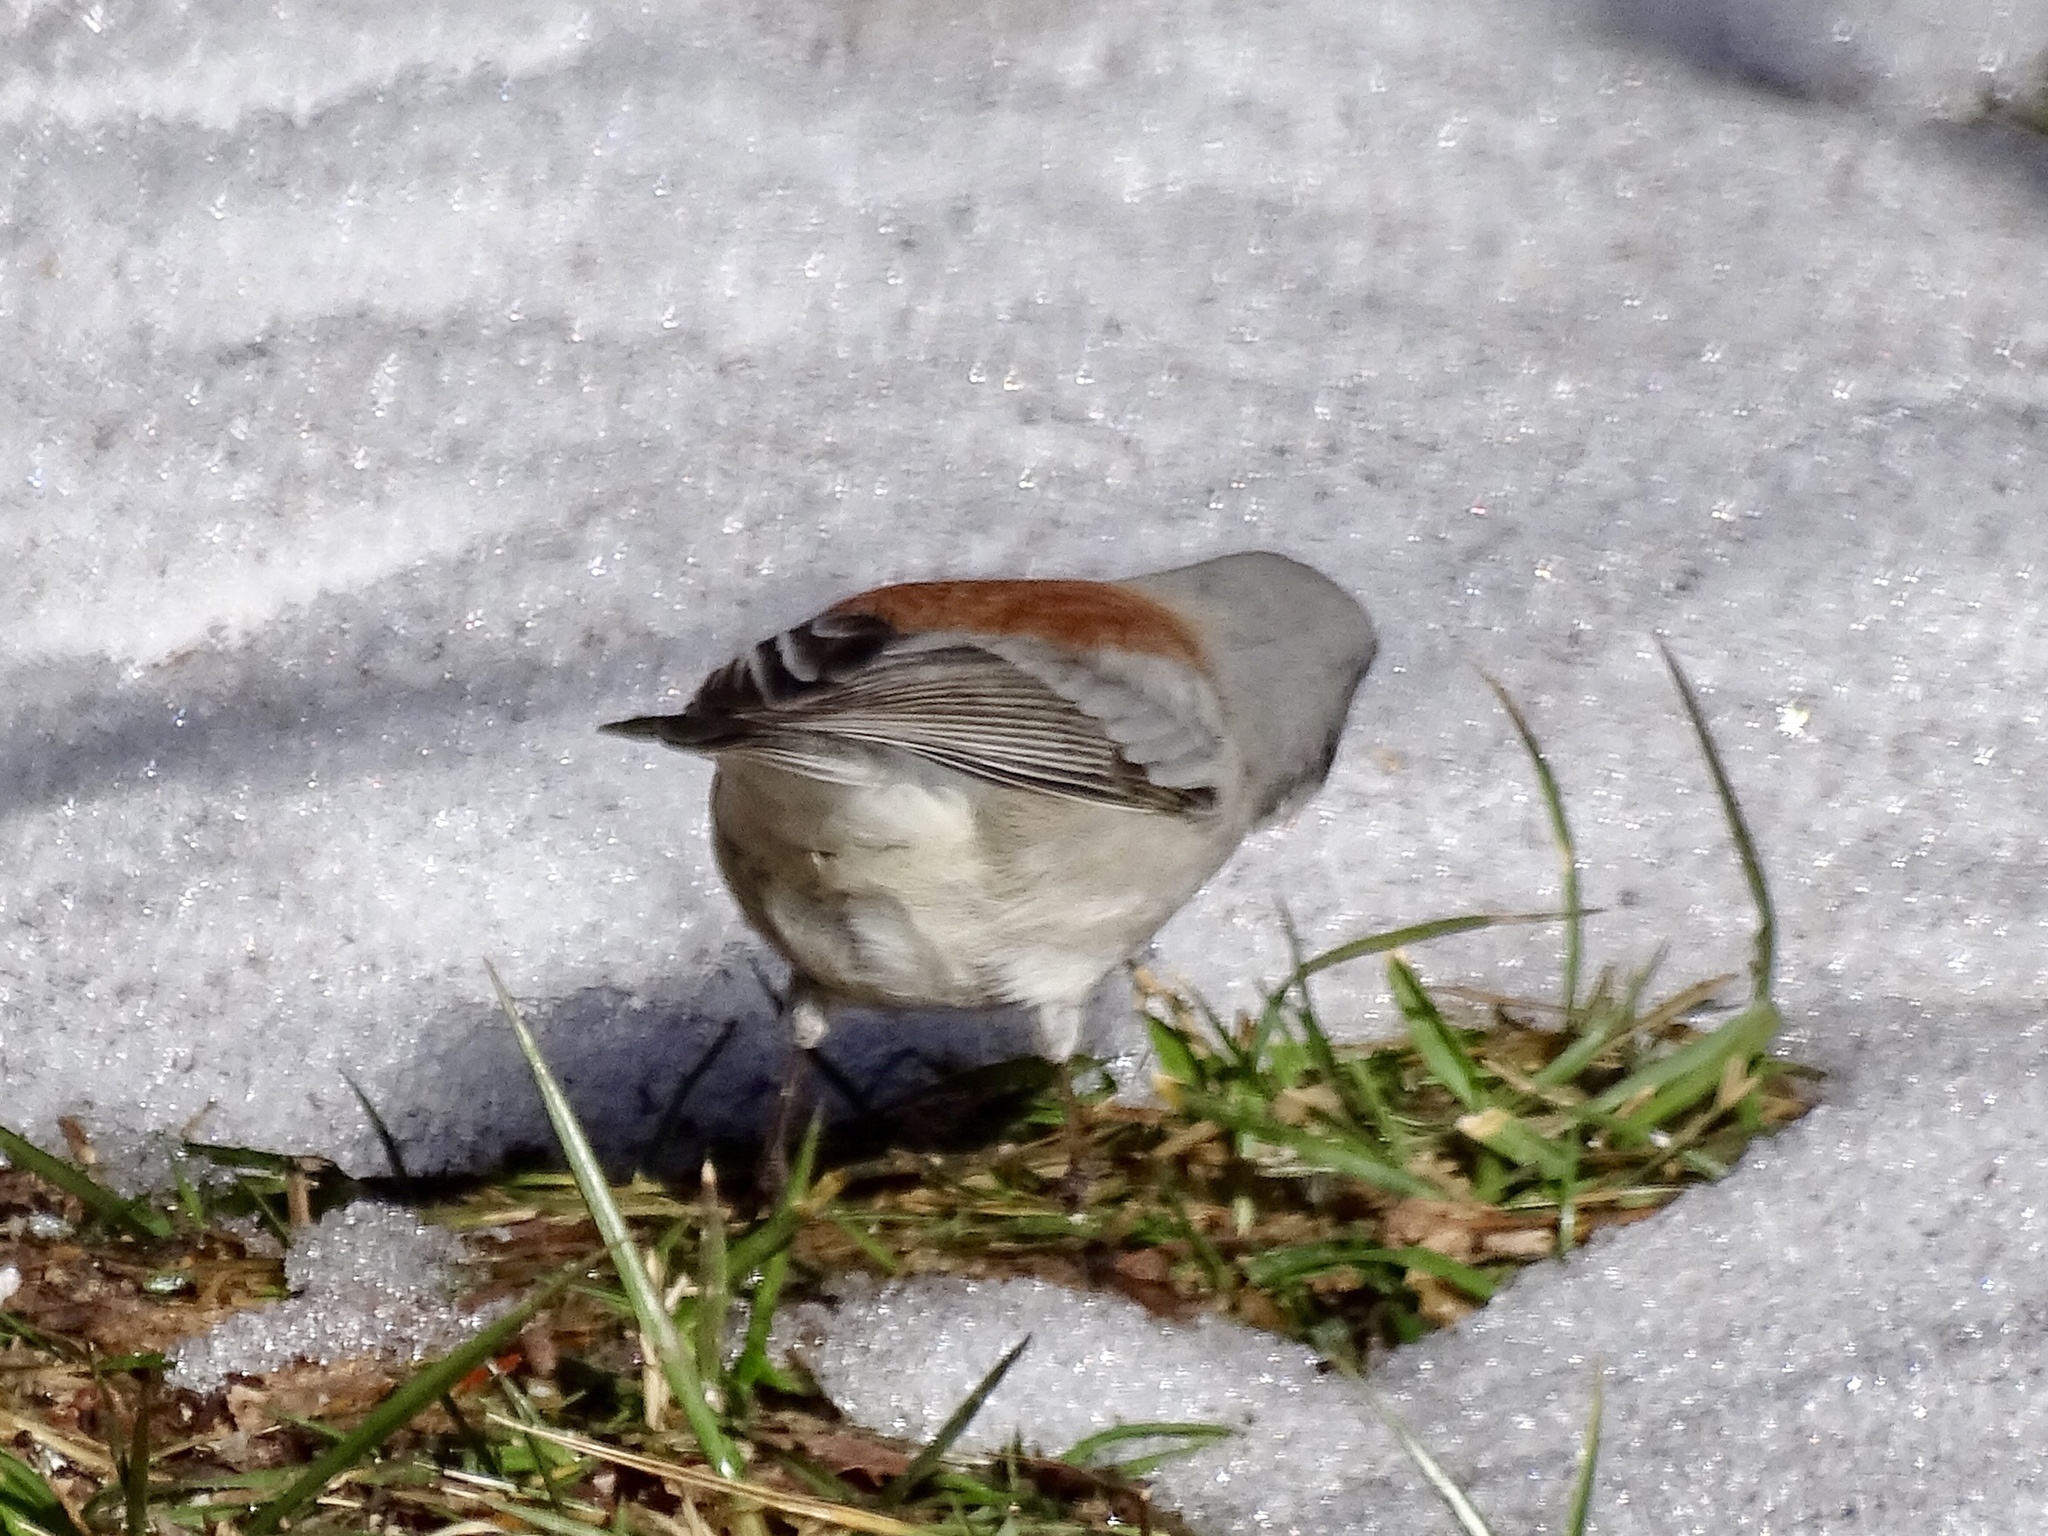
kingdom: Animalia
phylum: Chordata
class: Aves
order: Passeriformes
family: Passerellidae
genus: Junco
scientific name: Junco hyemalis
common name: Dark-eyed junco
